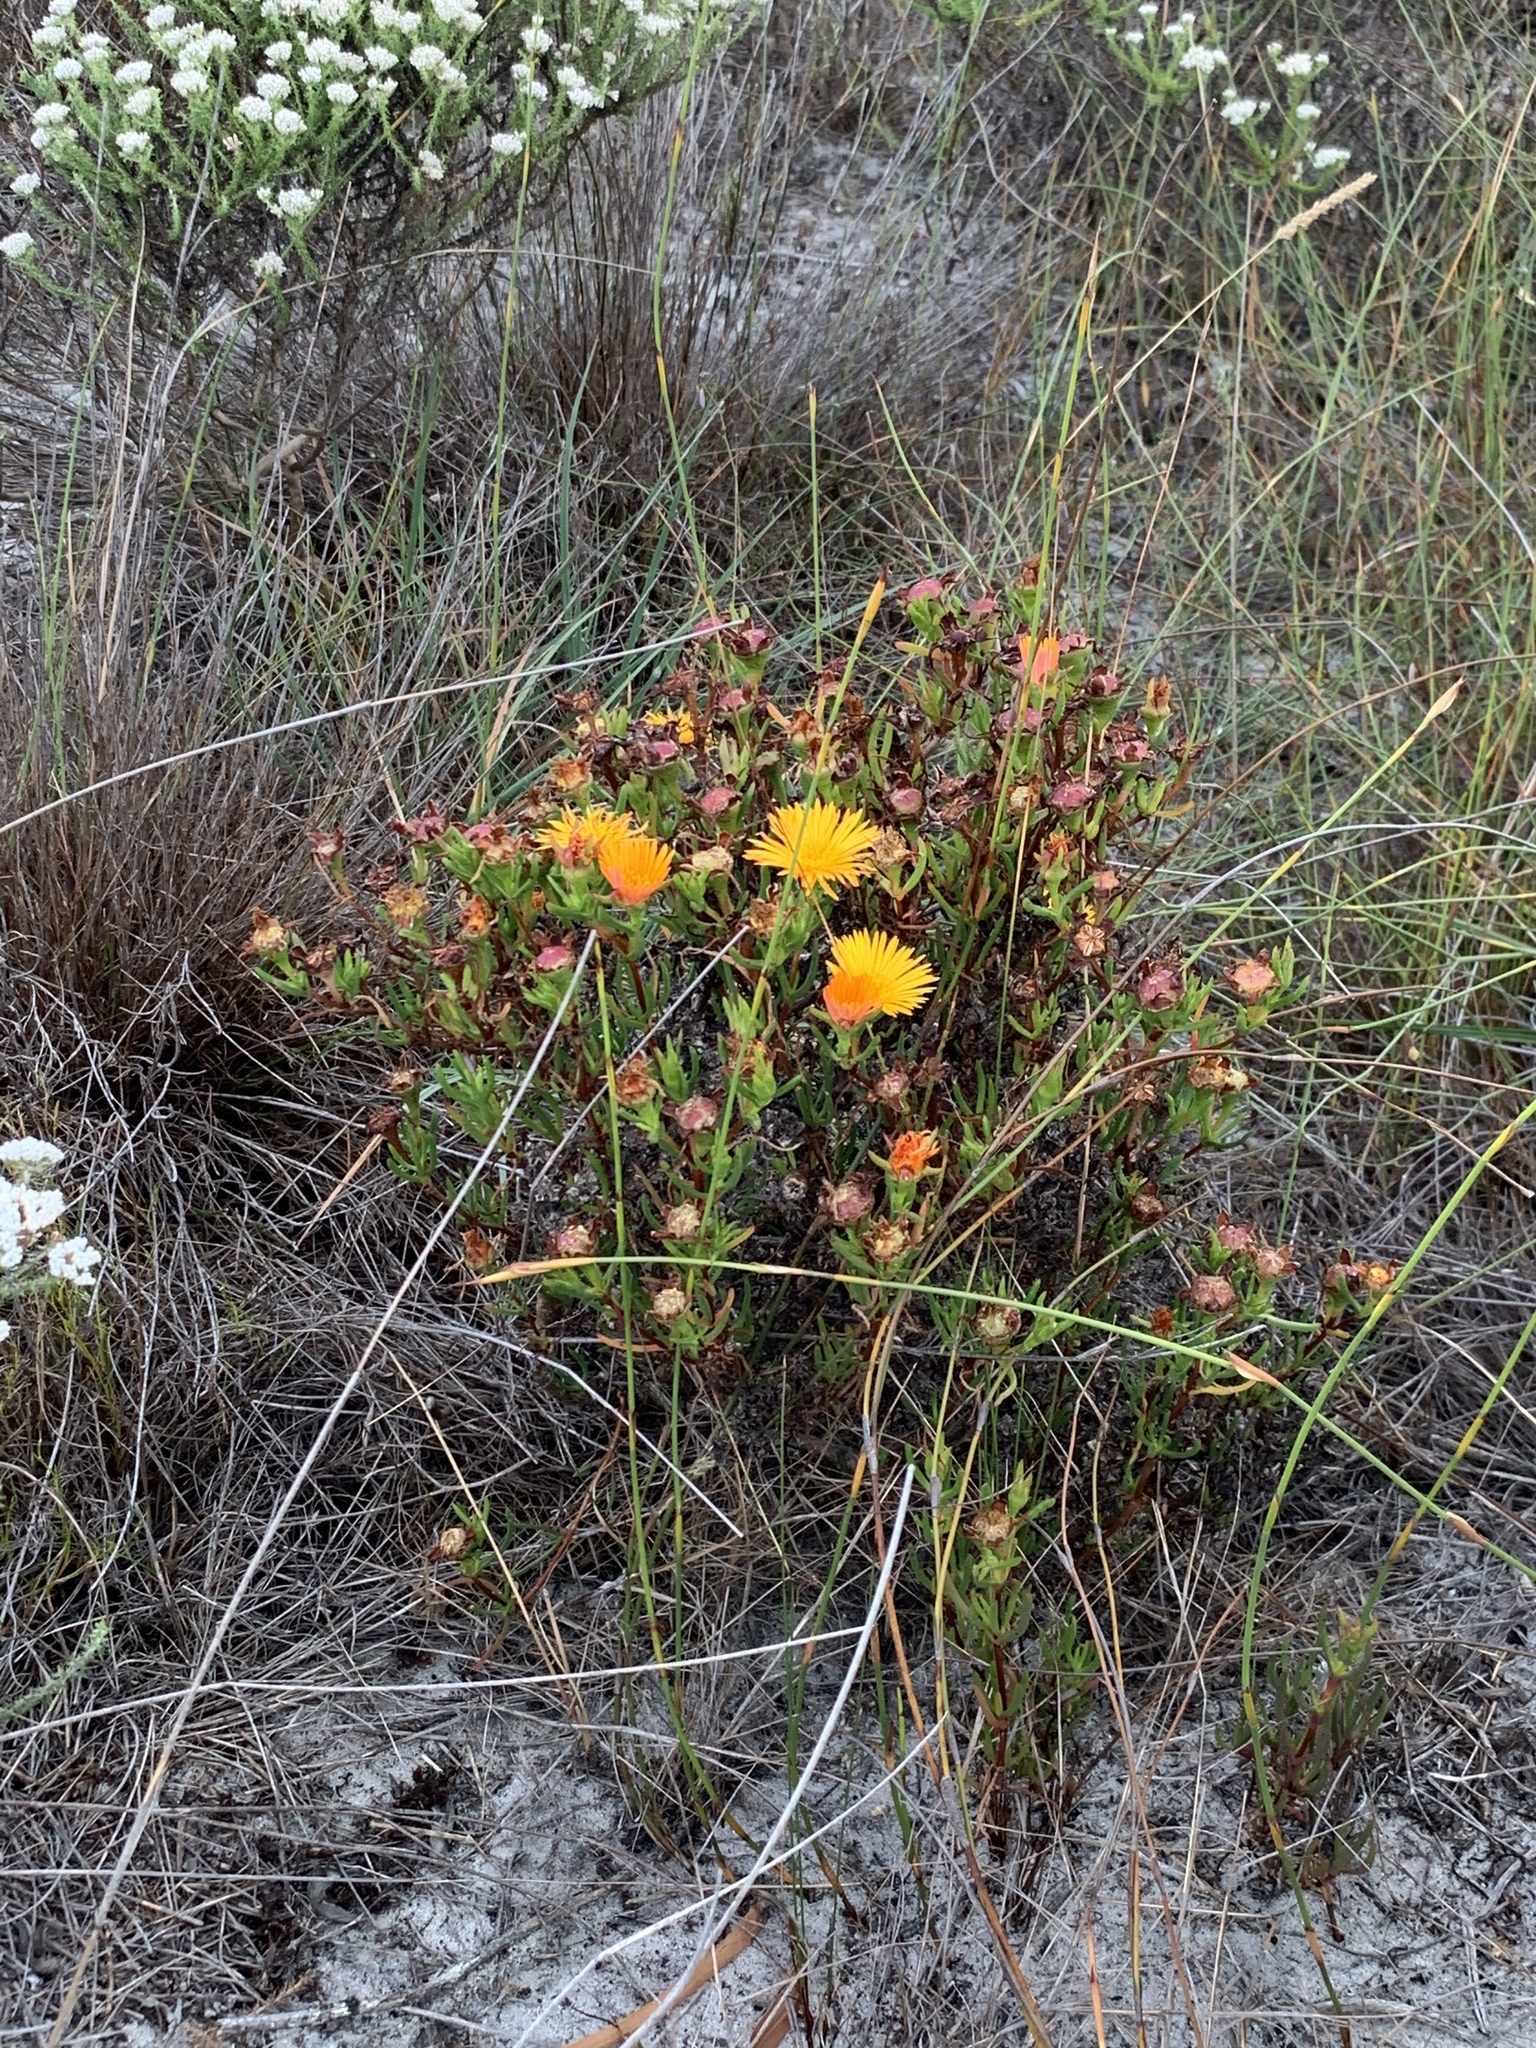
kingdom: Plantae
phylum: Tracheophyta
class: Magnoliopsida
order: Caryophyllales
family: Aizoaceae
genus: Lampranthus
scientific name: Lampranthus bicolor
